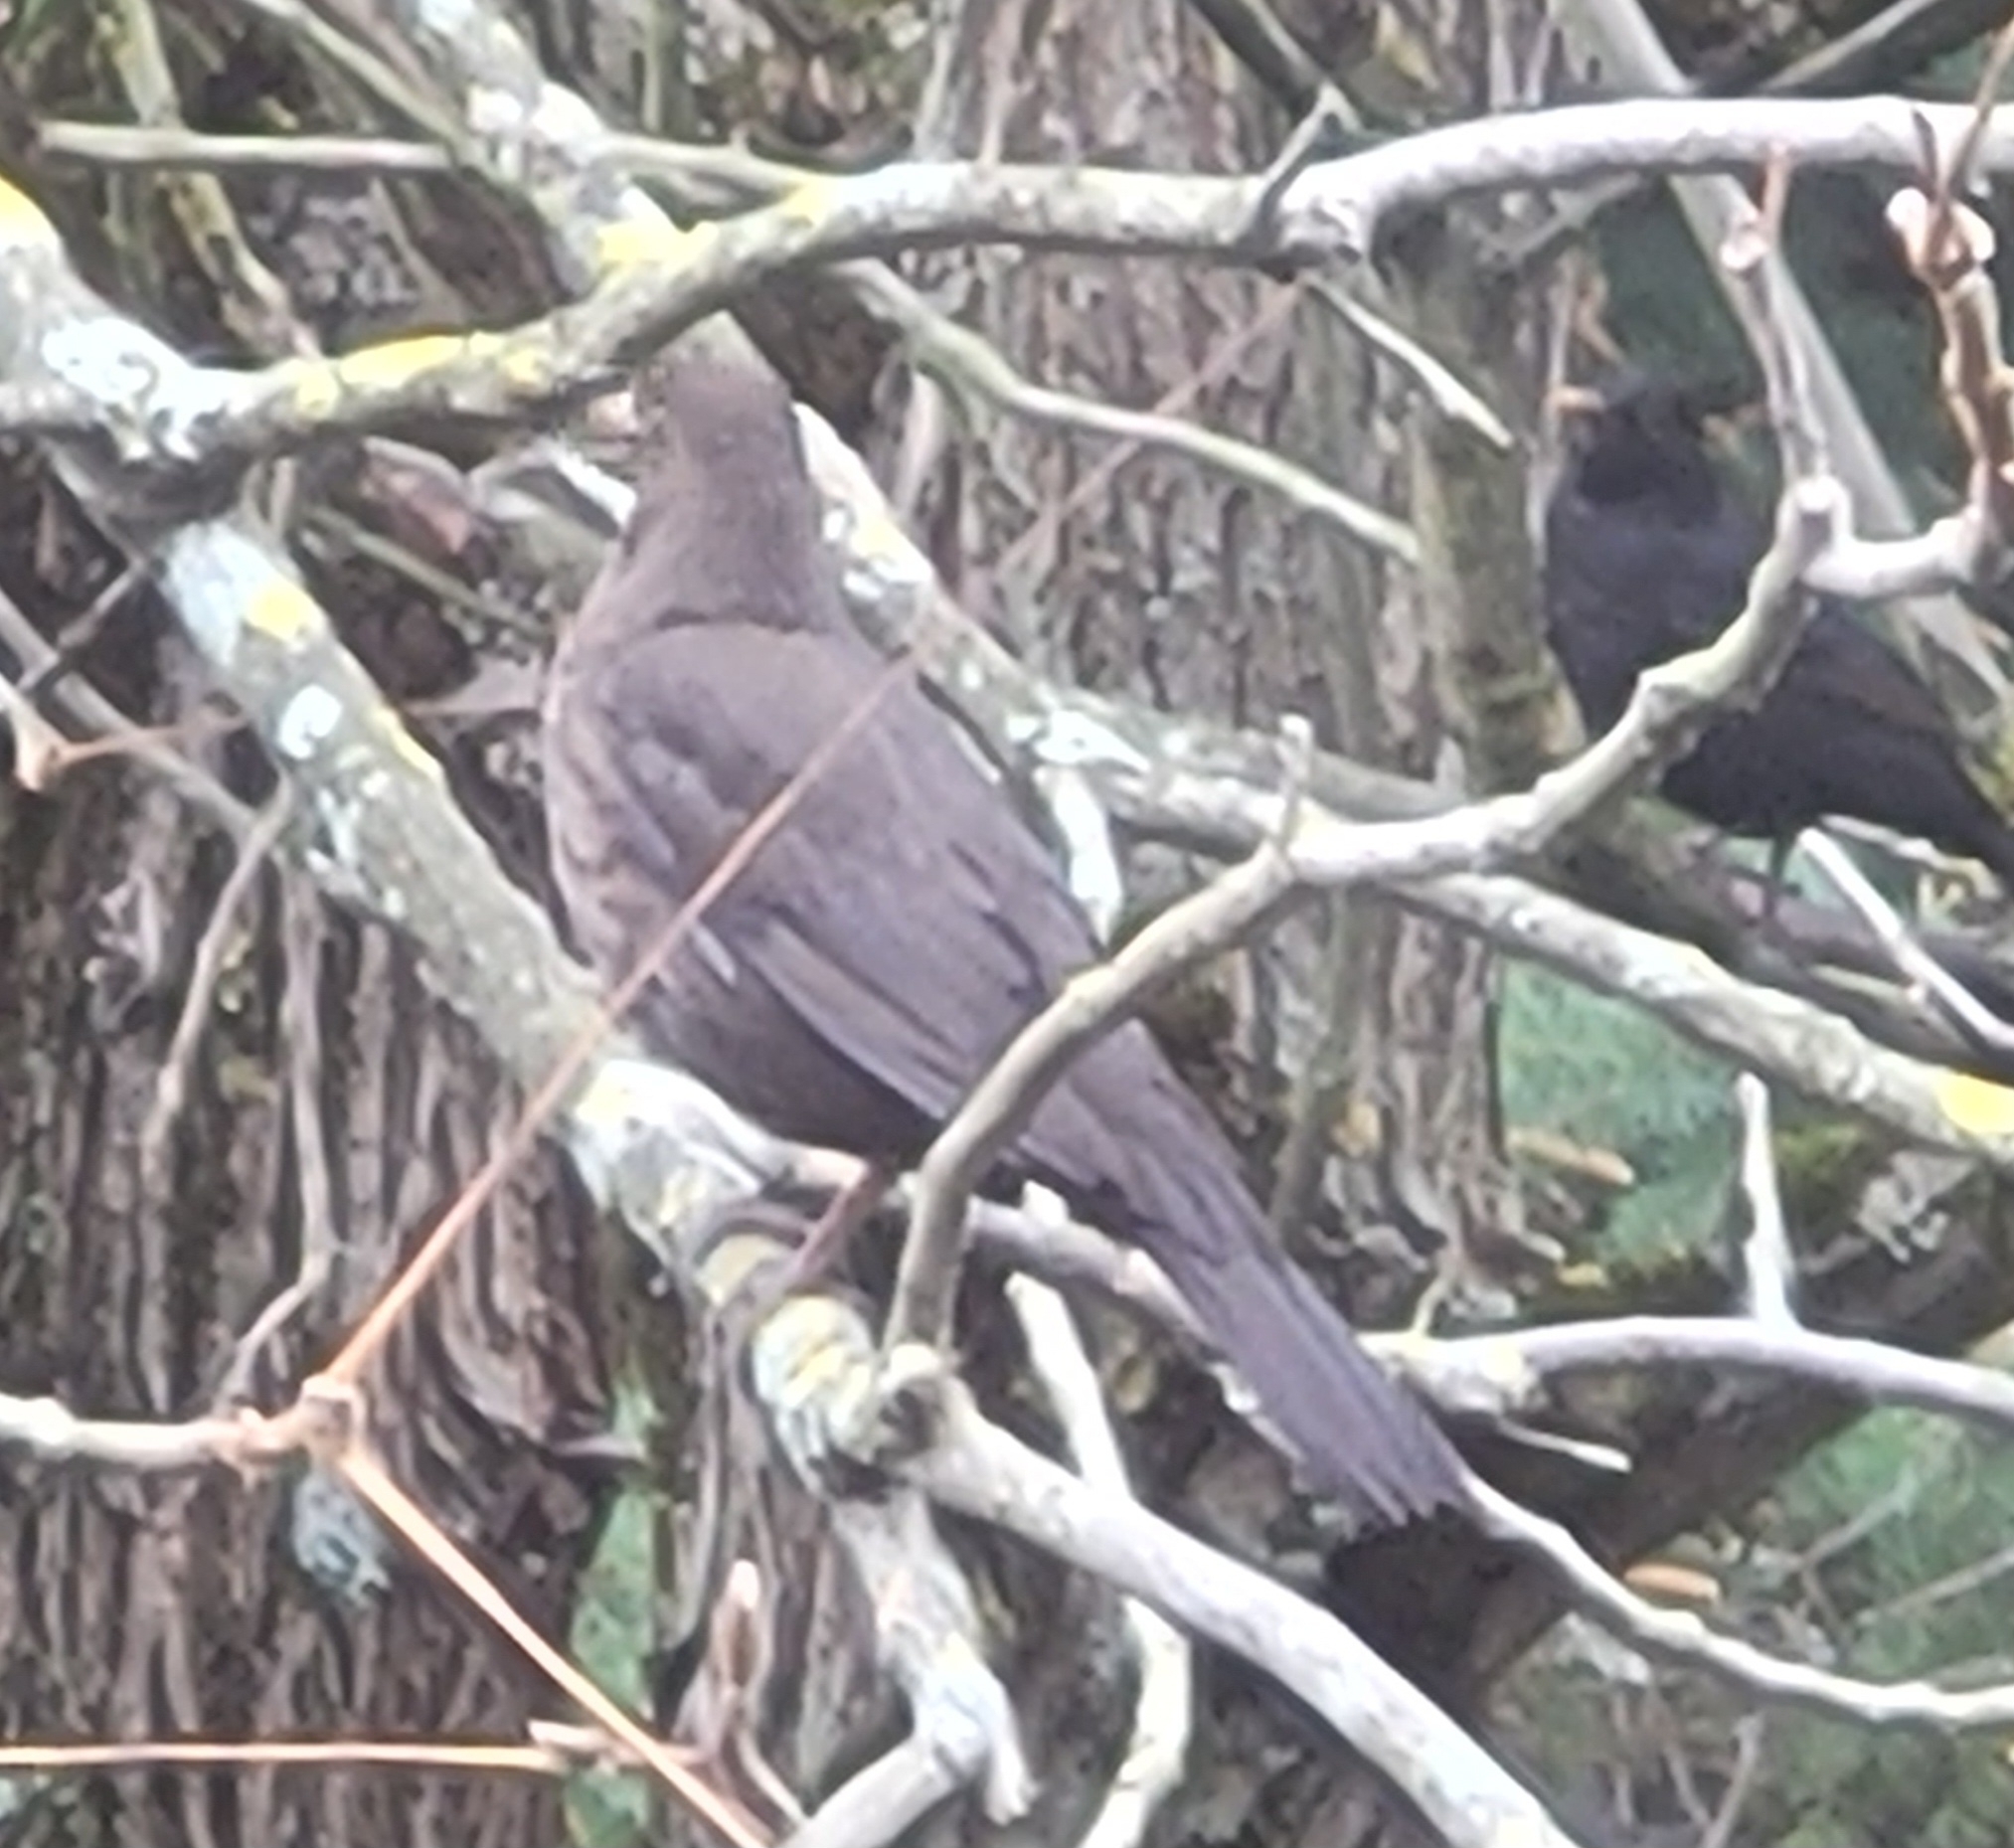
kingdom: Animalia
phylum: Chordata
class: Aves
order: Passeriformes
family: Turdidae
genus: Turdus
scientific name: Turdus merula
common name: Common blackbird
